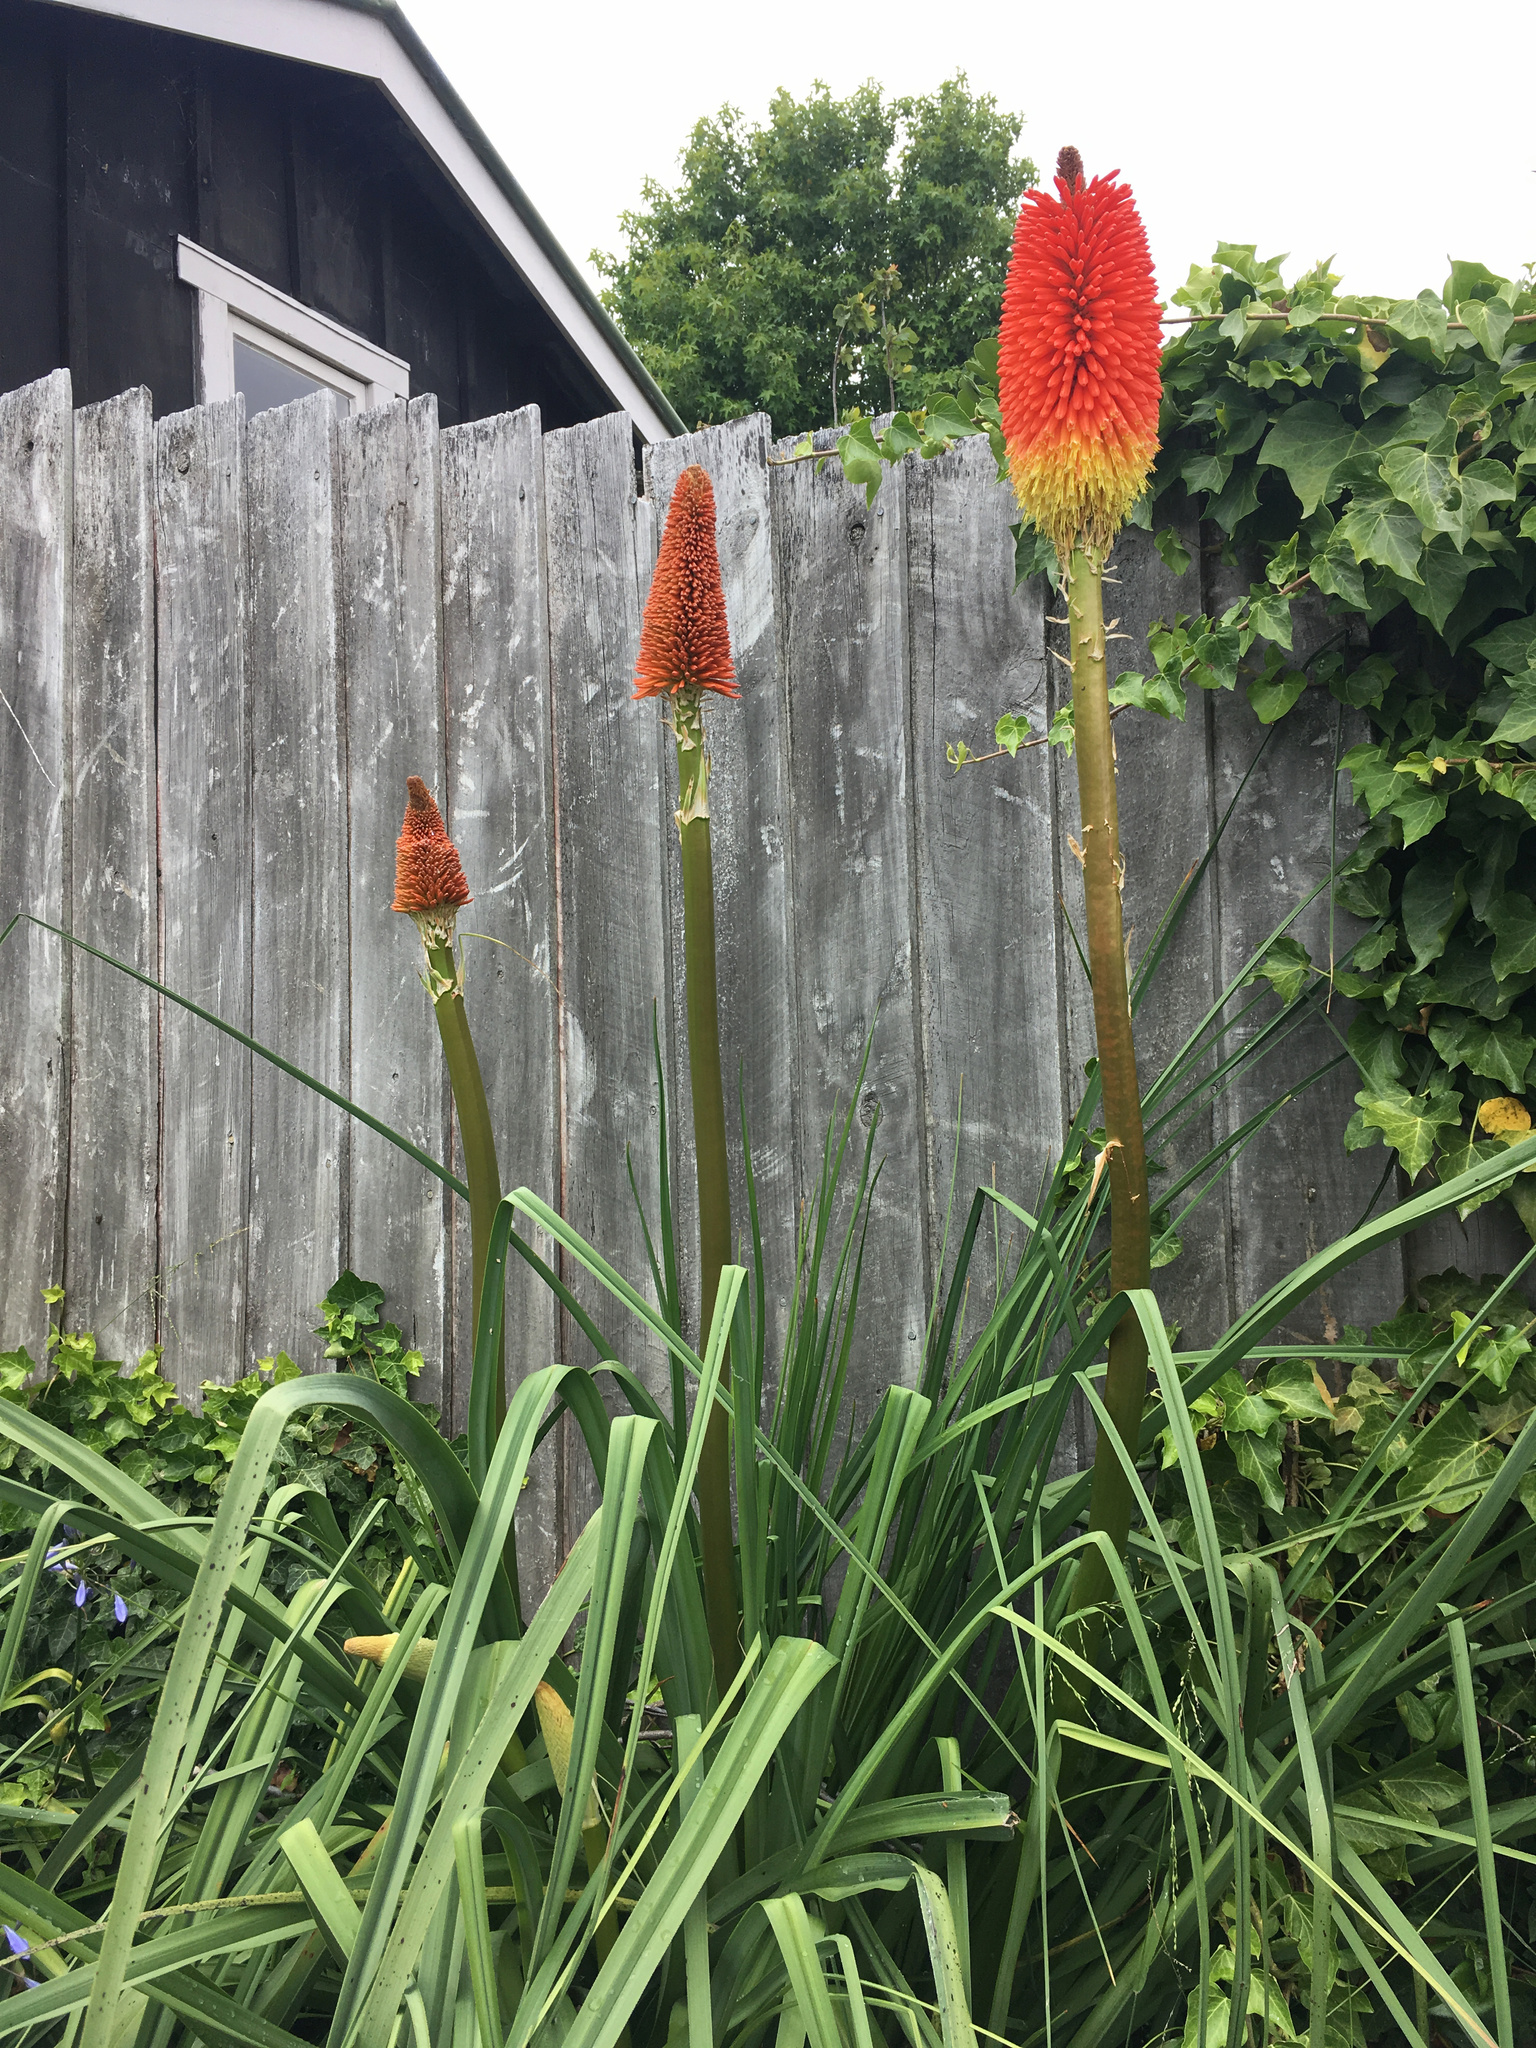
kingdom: Plantae
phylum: Tracheophyta
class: Liliopsida
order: Asparagales
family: Asphodelaceae
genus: Kniphofia
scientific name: Kniphofia
